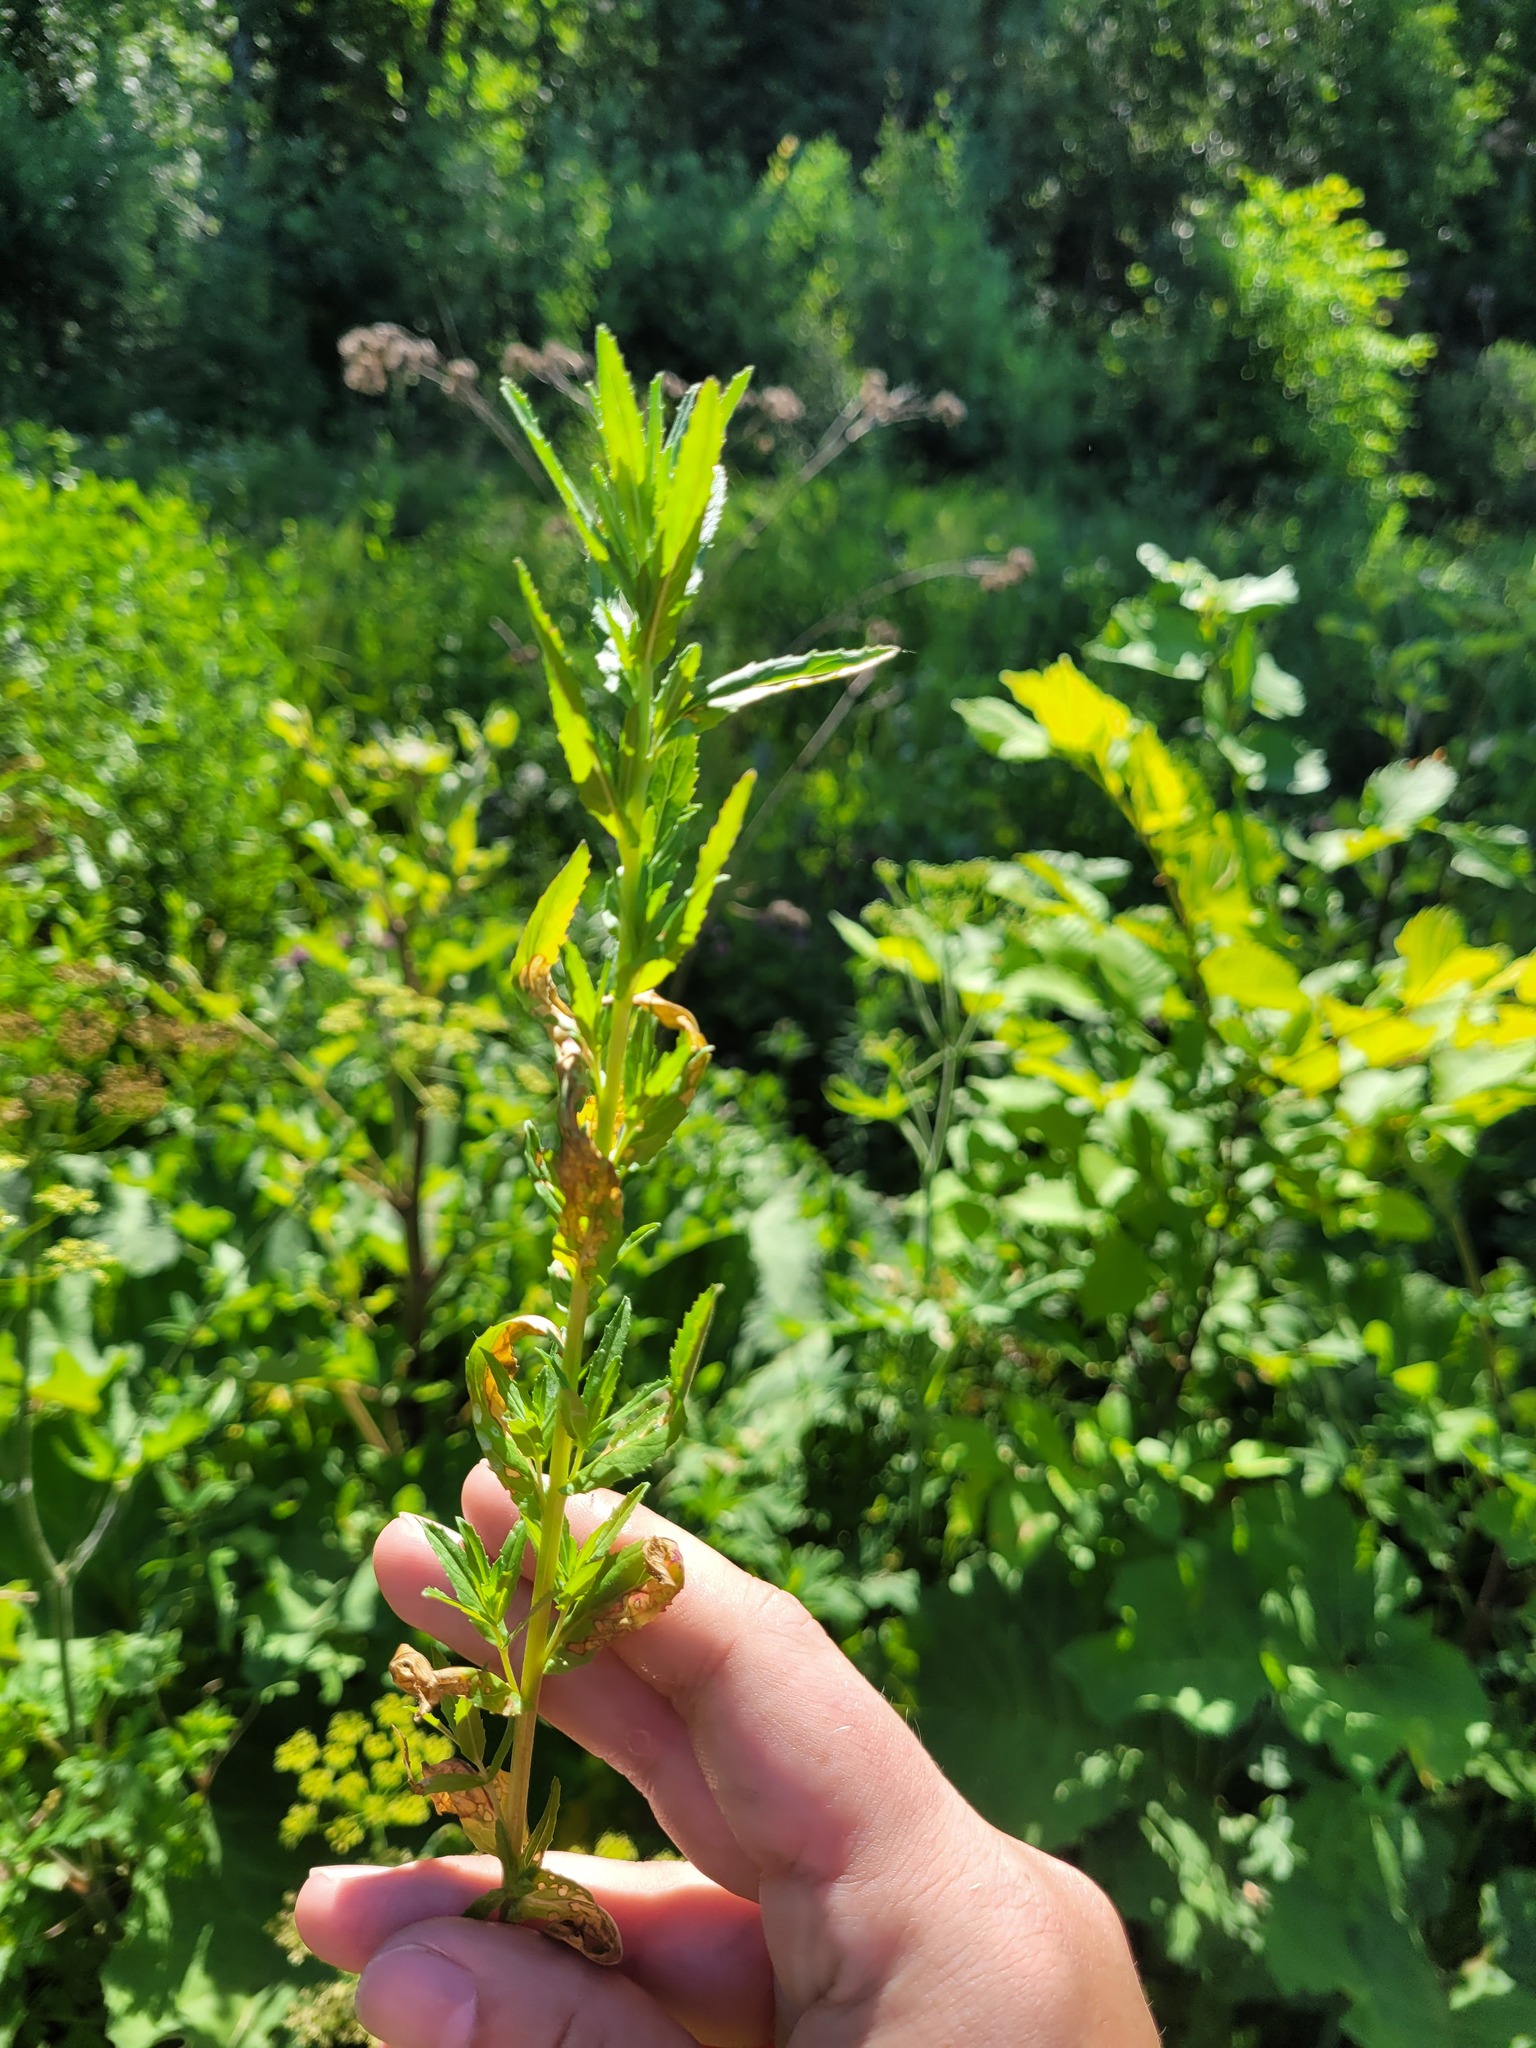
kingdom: Plantae
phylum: Tracheophyta
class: Magnoliopsida
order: Myrtales
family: Onagraceae
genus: Epilobium
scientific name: Epilobium tetragonum
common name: Square-stemmed willowherb
